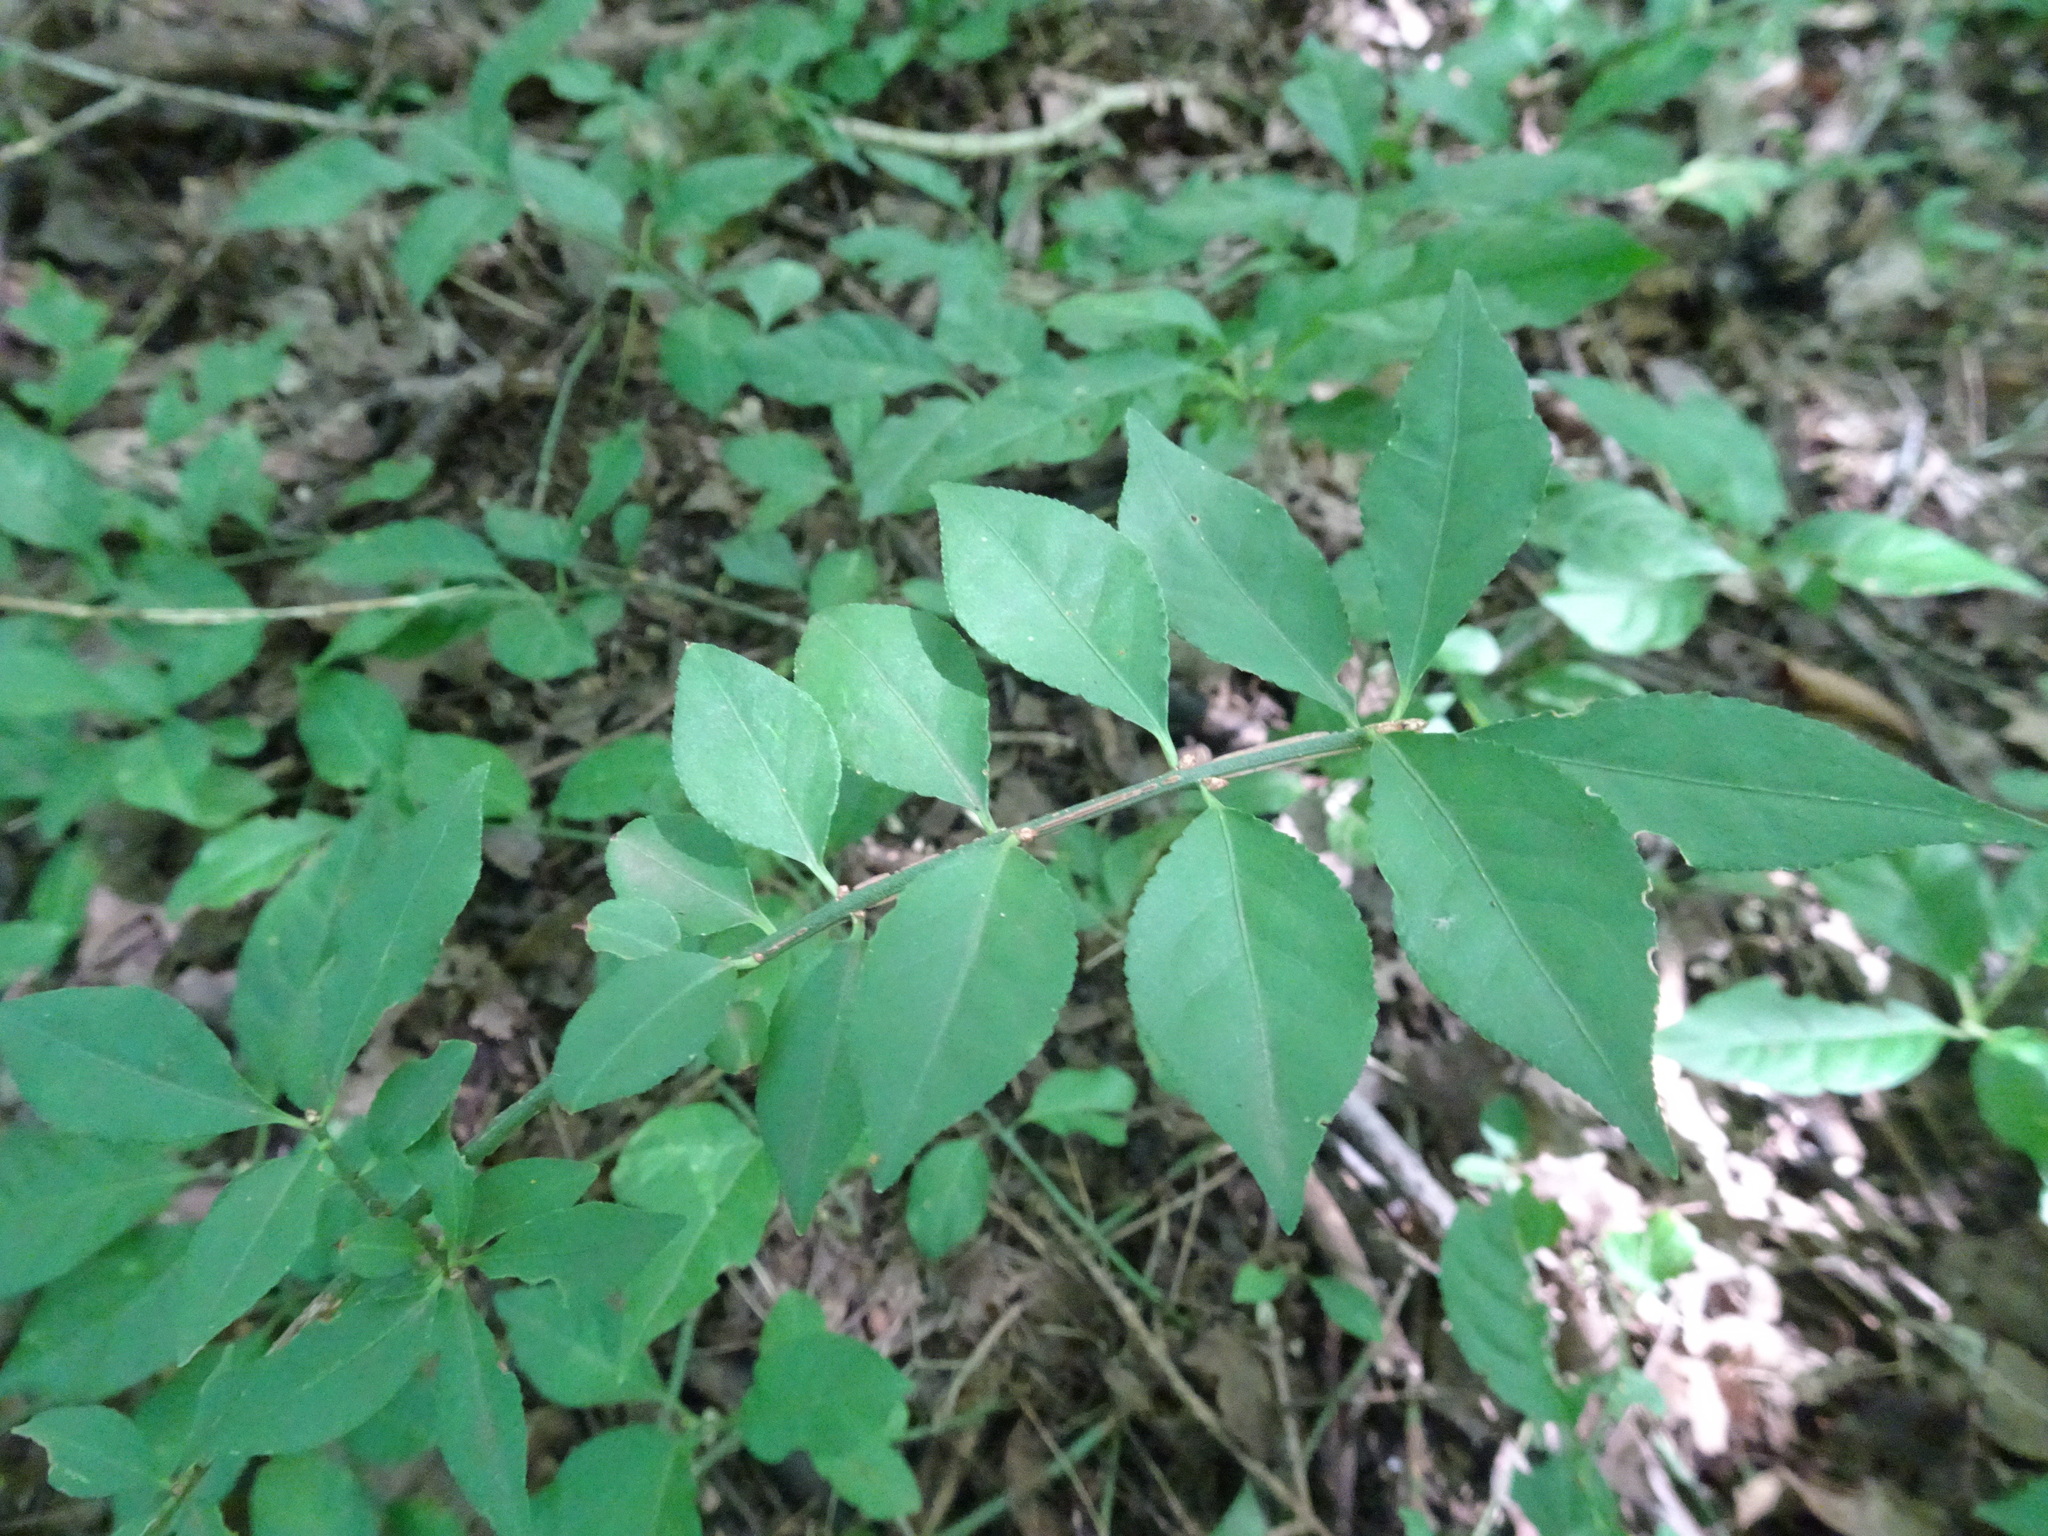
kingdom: Plantae
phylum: Tracheophyta
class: Magnoliopsida
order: Celastrales
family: Celastraceae
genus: Euonymus
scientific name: Euonymus alatus
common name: Winged euonymus
